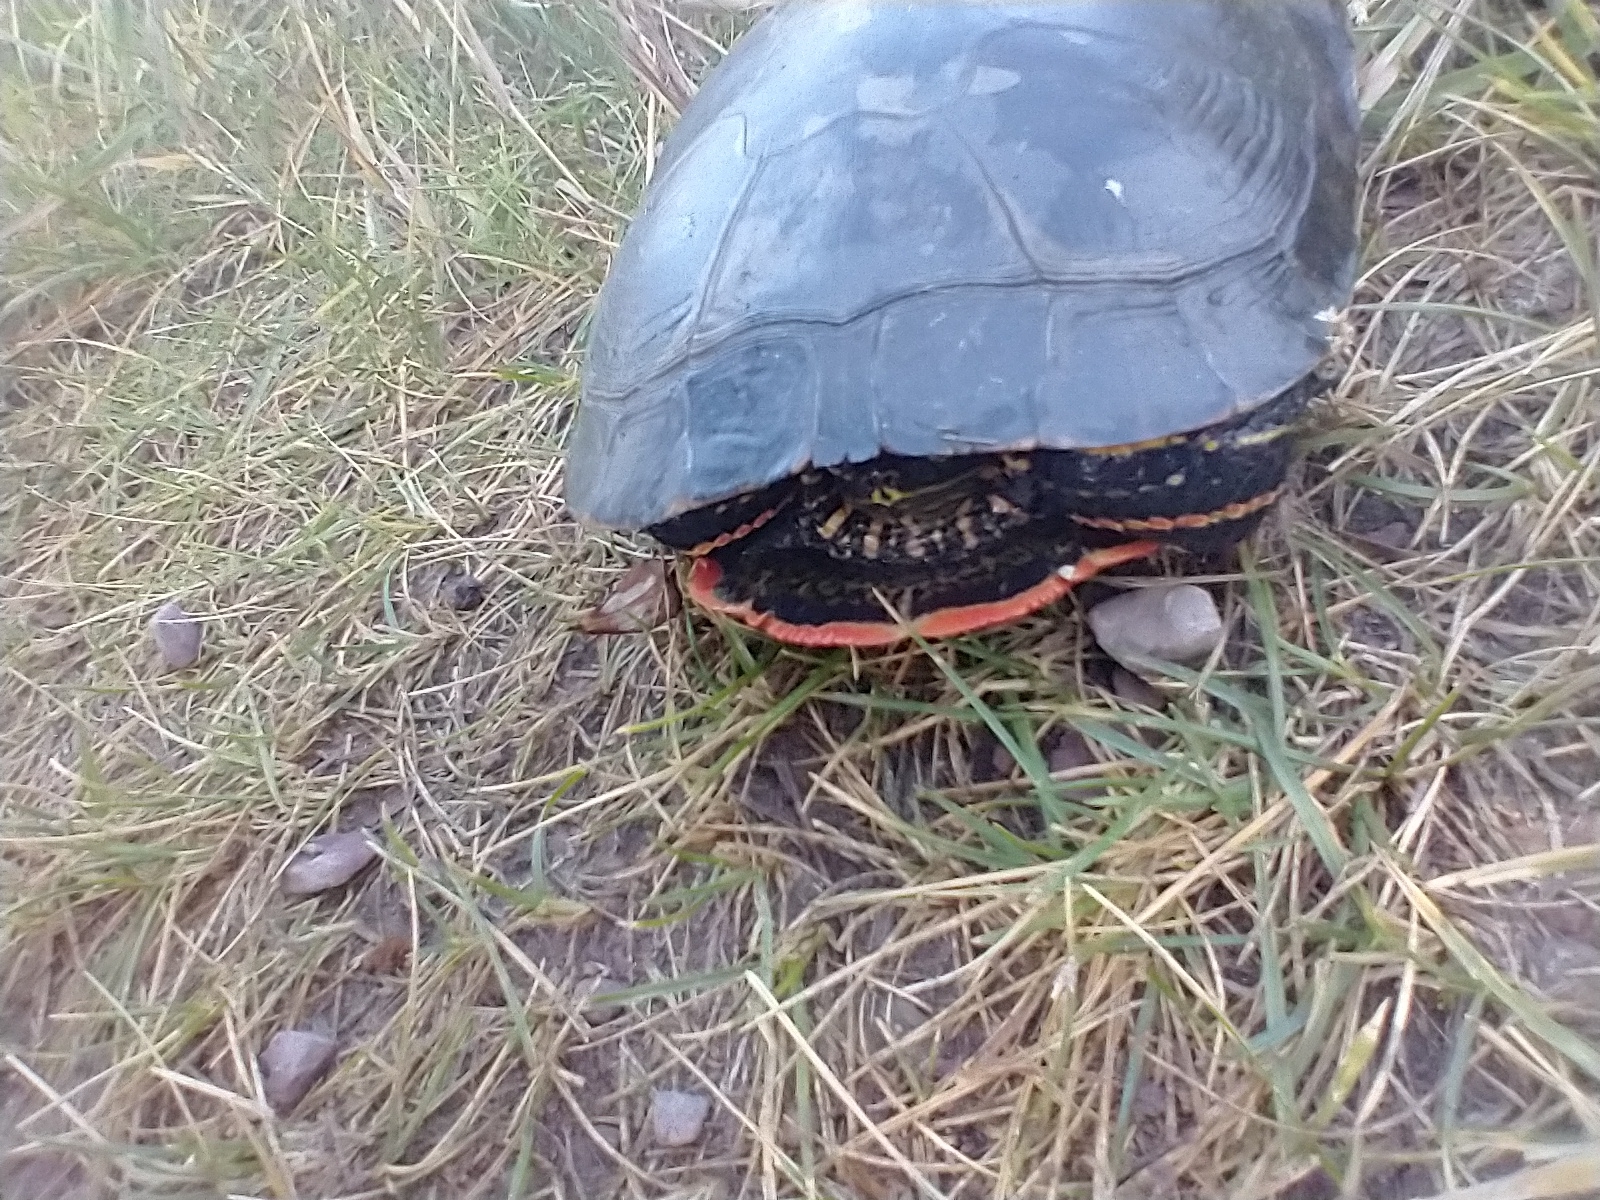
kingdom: Animalia
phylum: Chordata
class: Testudines
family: Emydidae
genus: Chrysemys
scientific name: Chrysemys picta
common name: Painted turtle
